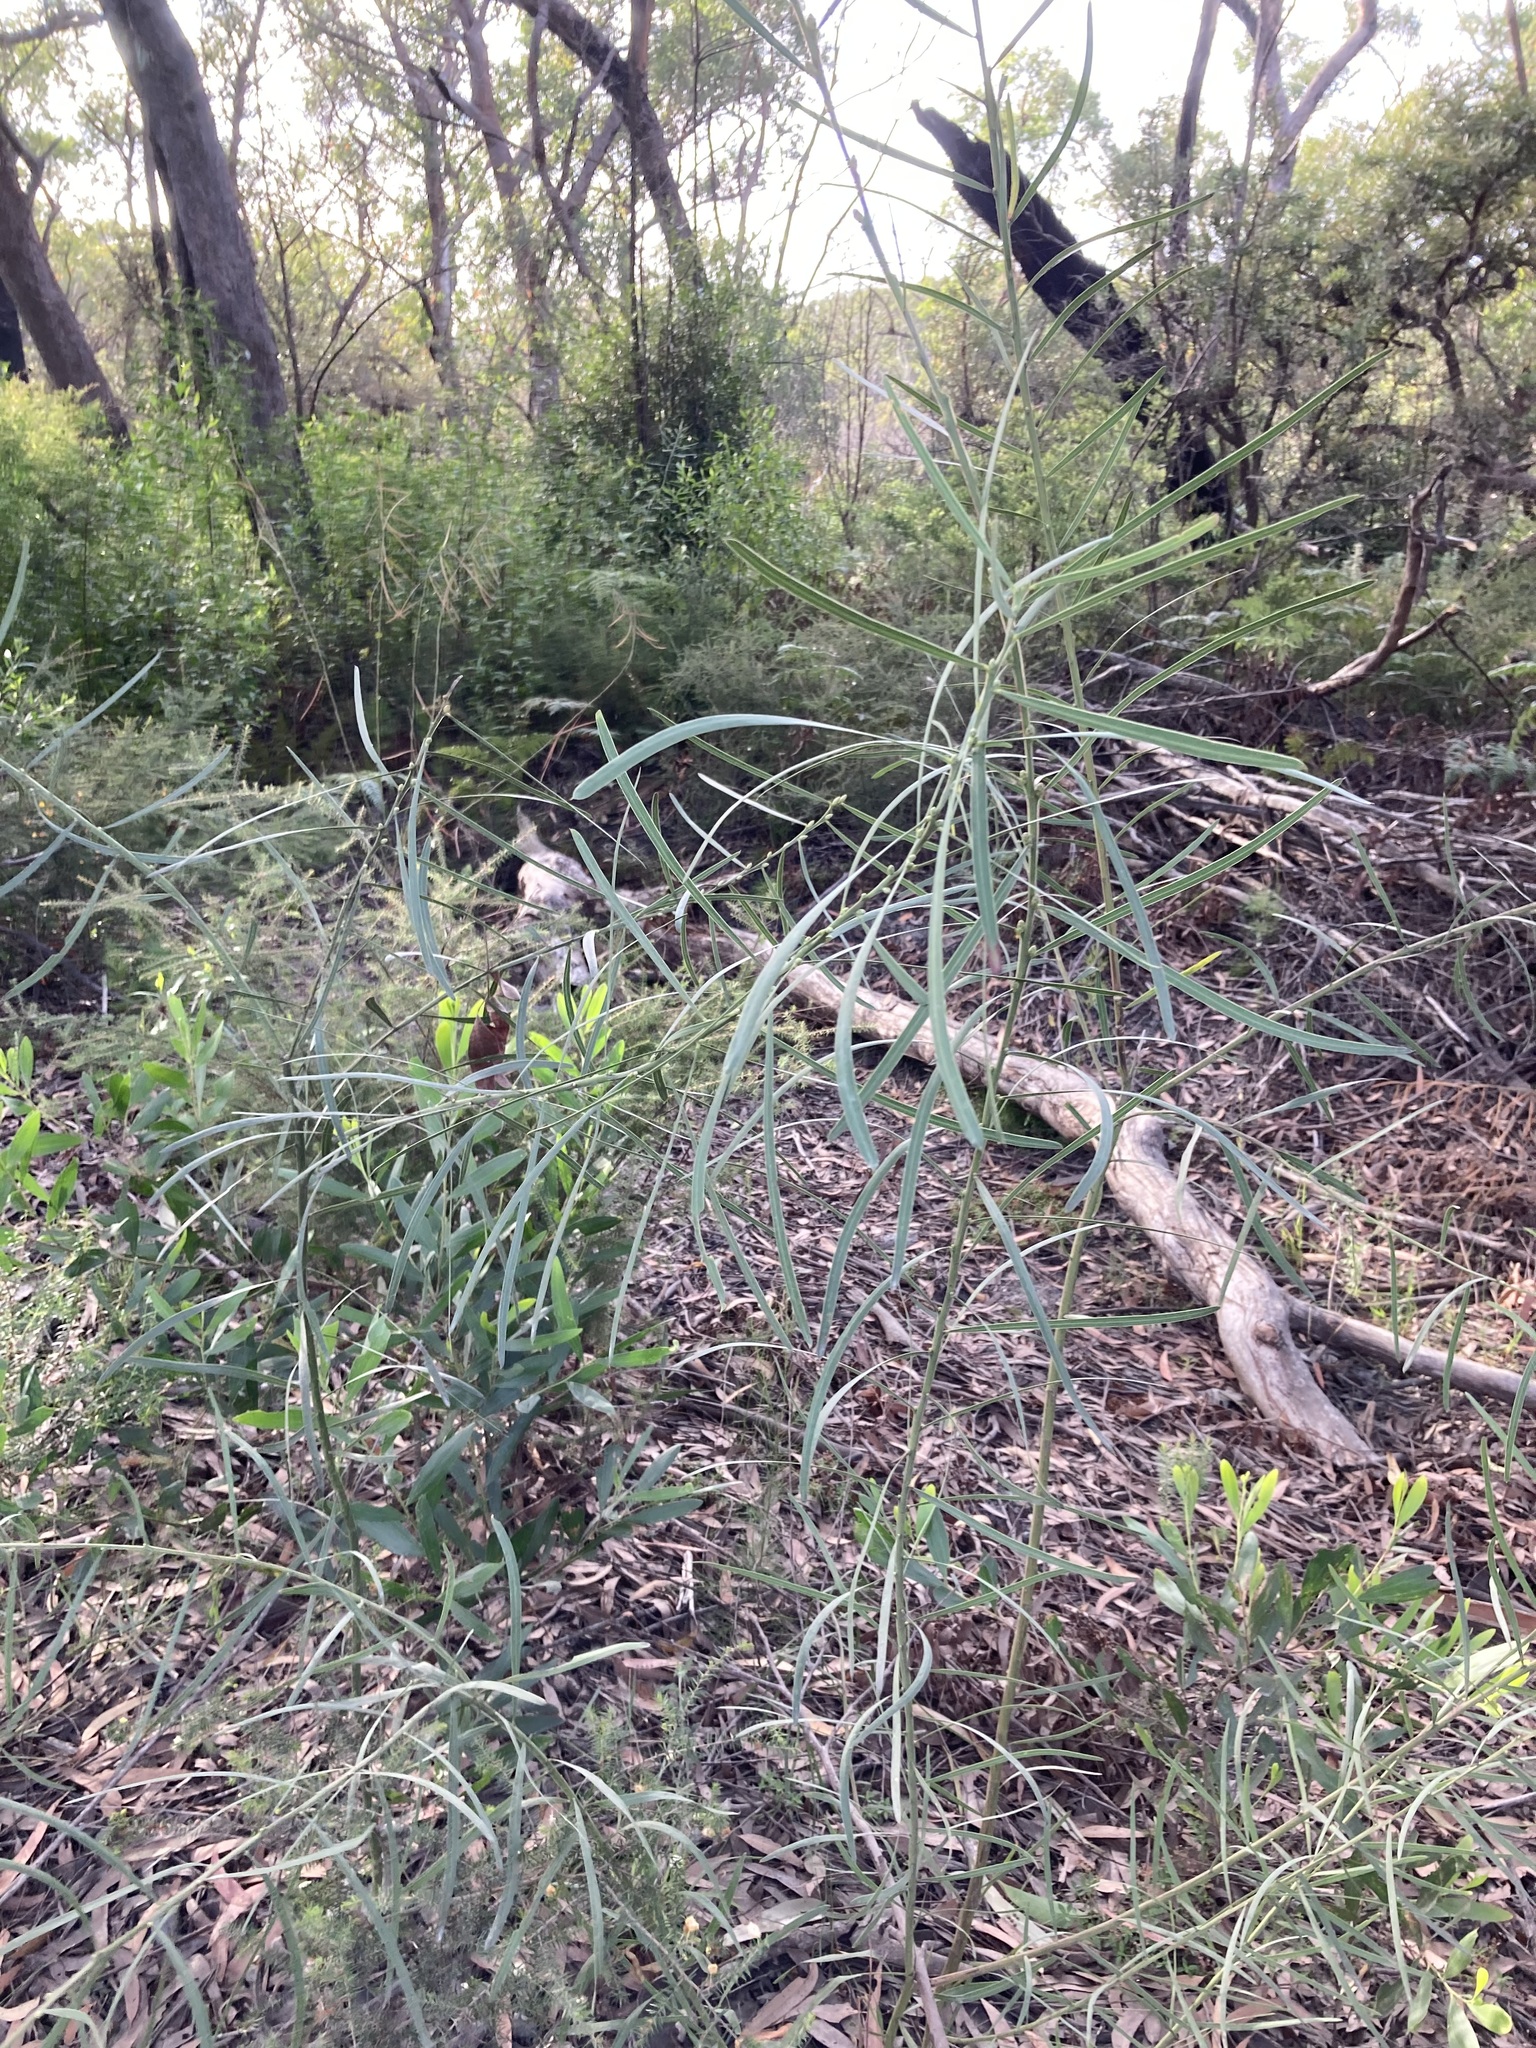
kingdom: Plantae
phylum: Tracheophyta
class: Magnoliopsida
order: Fabales
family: Fabaceae
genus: Acacia
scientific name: Acacia suaveolens
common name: Sweet acacia
